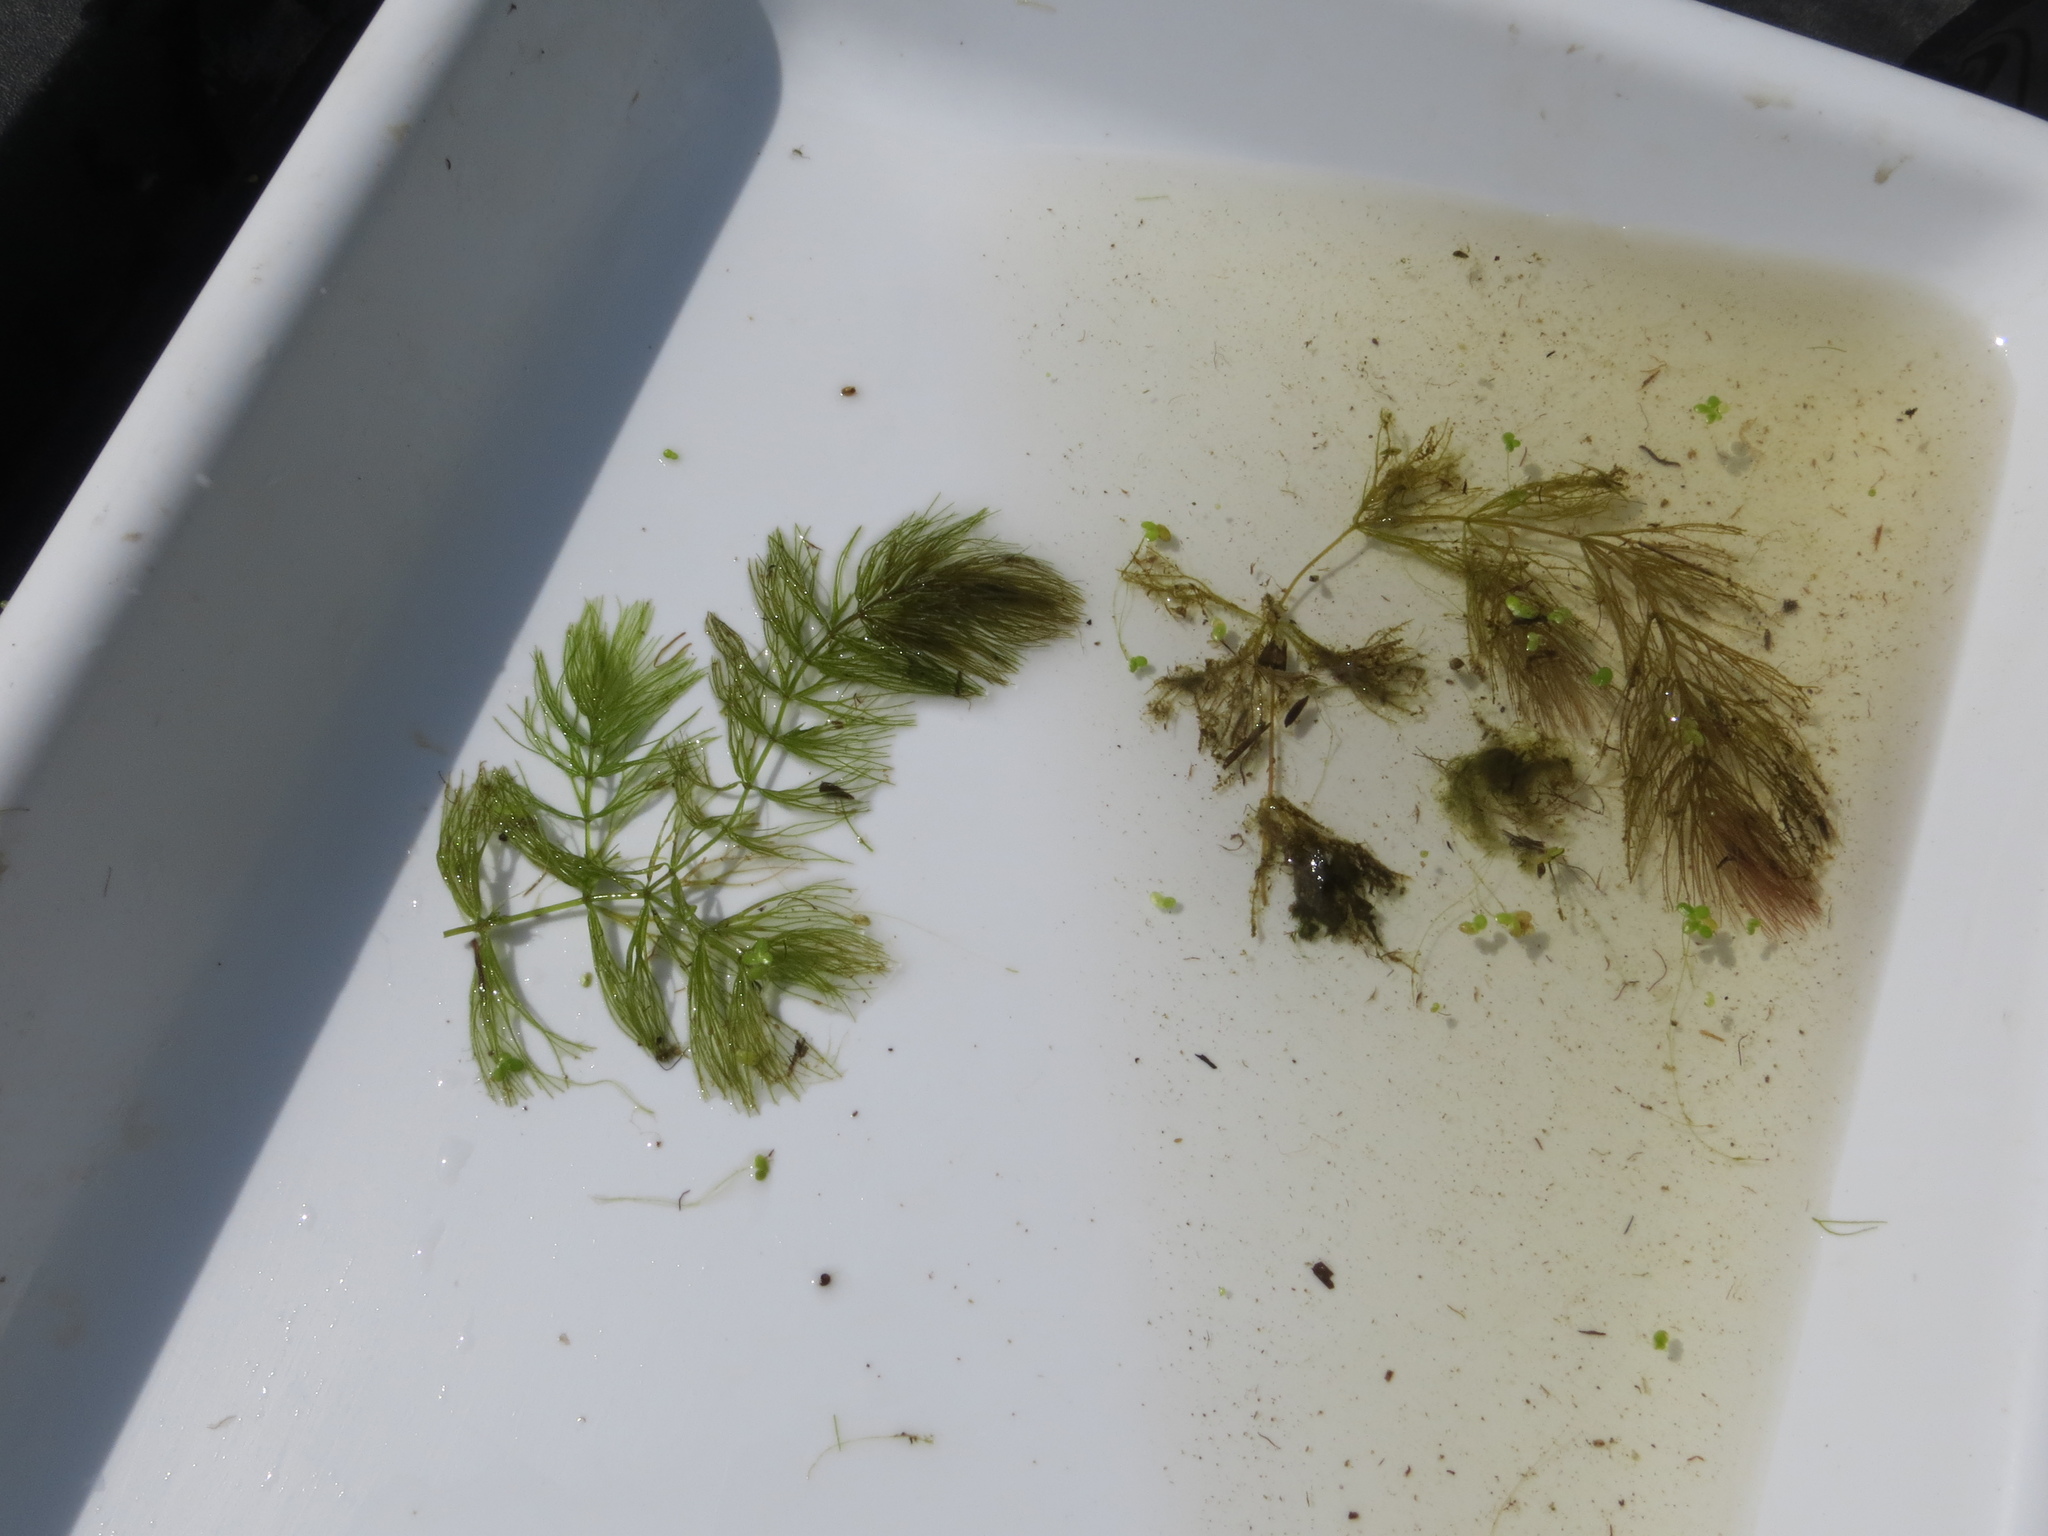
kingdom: Plantae
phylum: Tracheophyta
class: Magnoliopsida
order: Ceratophyllales
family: Ceratophyllaceae
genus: Ceratophyllum
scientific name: Ceratophyllum echinatum
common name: Prickly coontail
